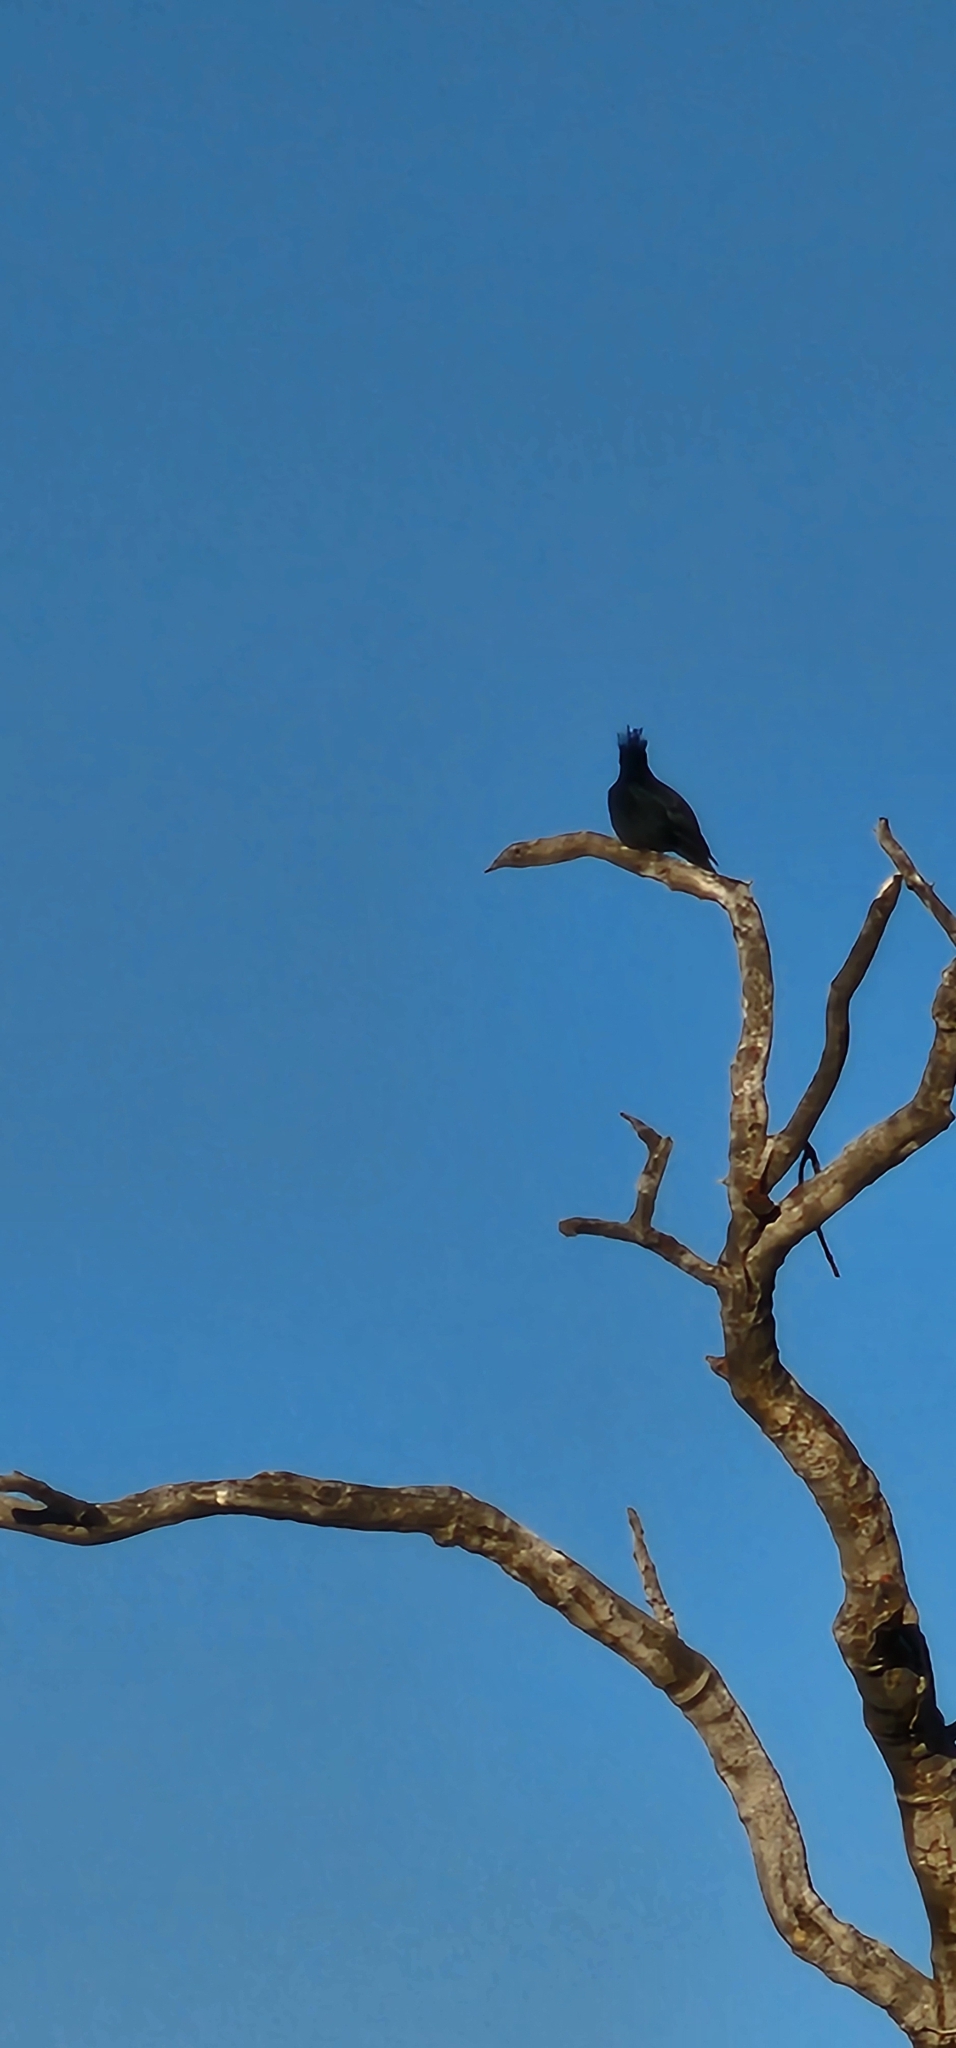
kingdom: Animalia
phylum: Chordata
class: Aves
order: Passeriformes
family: Ptilogonatidae
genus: Phainopepla
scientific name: Phainopepla nitens
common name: Phainopepla
